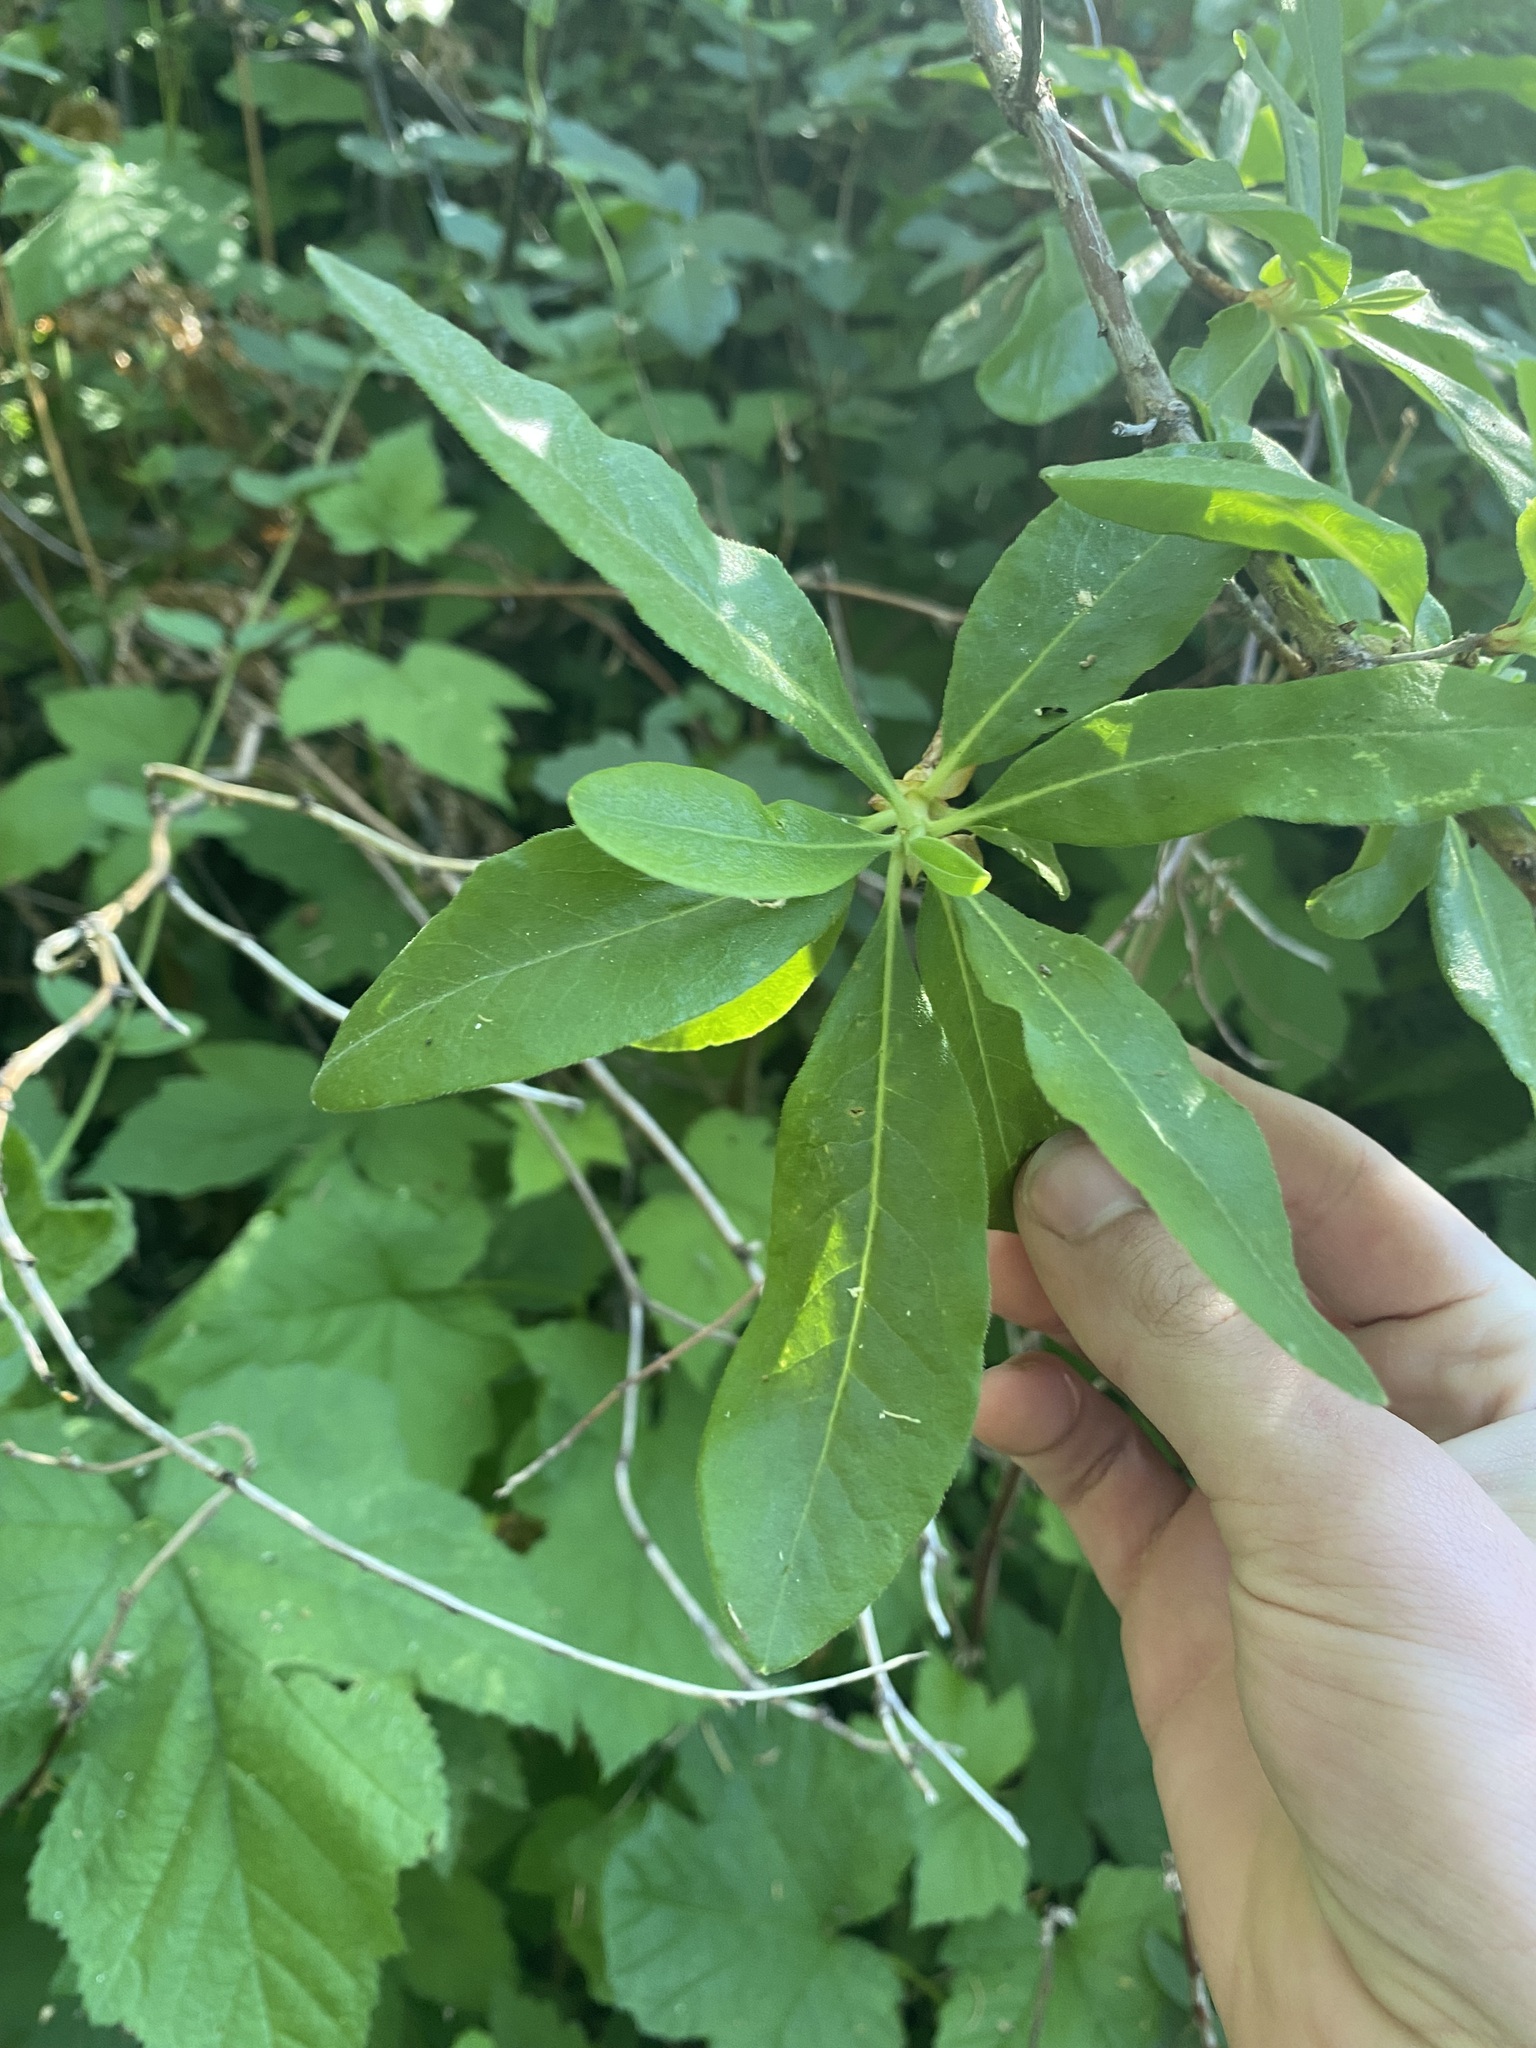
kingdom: Plantae
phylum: Tracheophyta
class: Magnoliopsida
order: Ericales
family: Ericaceae
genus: Rhododendron
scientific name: Rhododendron occidentale
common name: Western azalea
